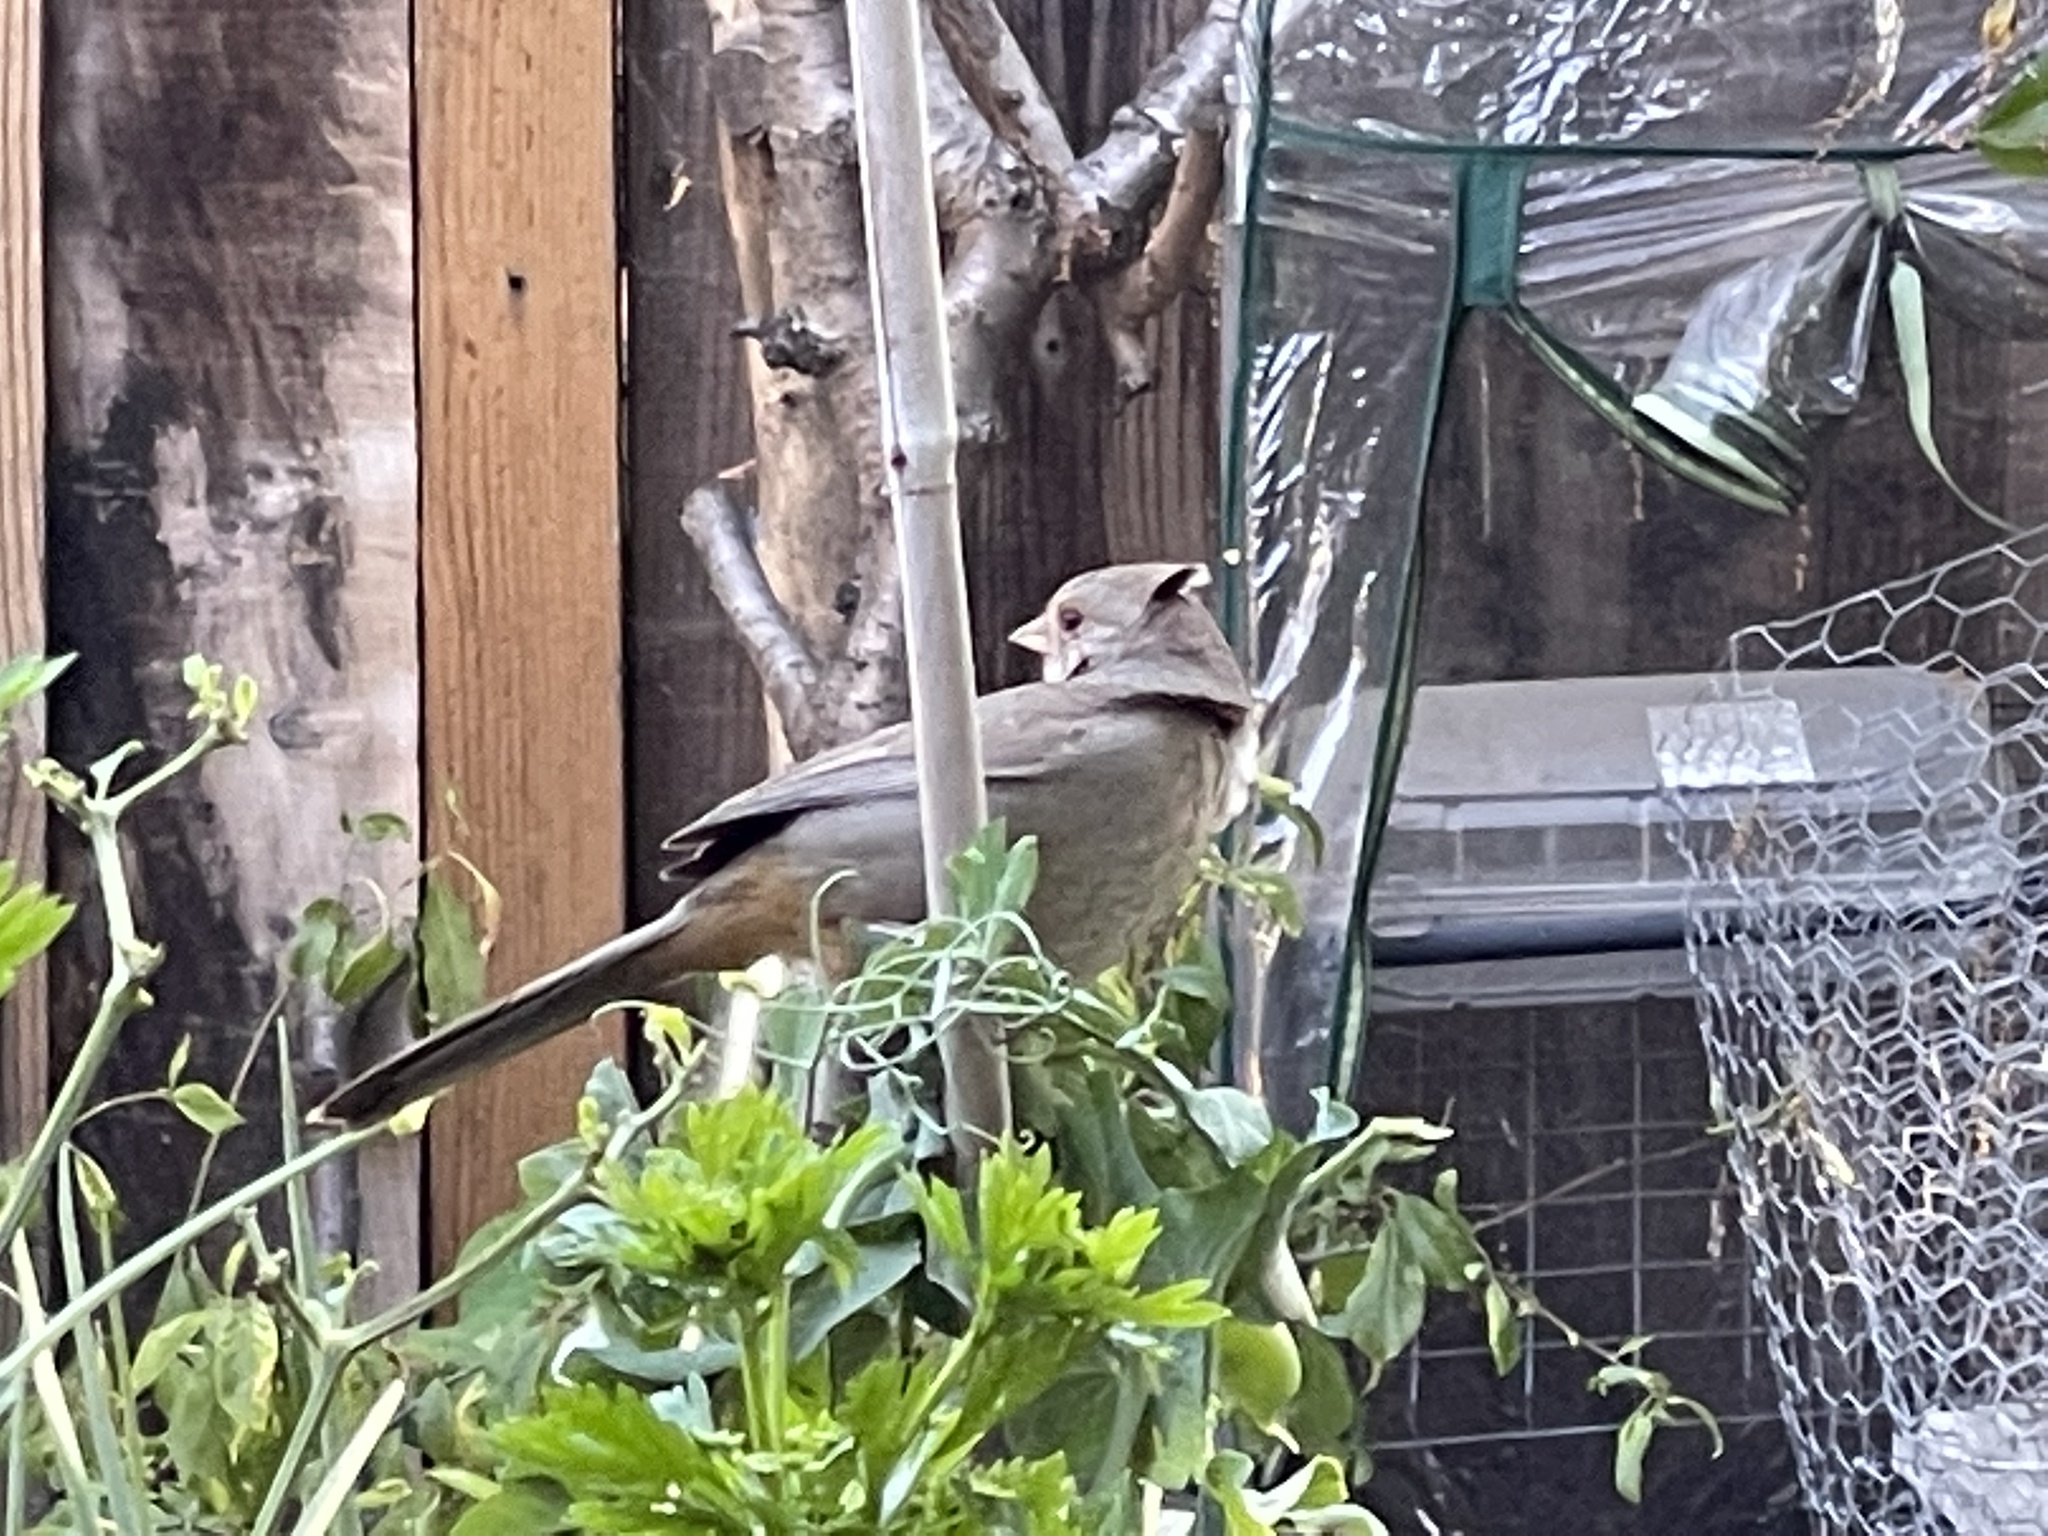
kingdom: Animalia
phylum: Chordata
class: Aves
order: Passeriformes
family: Passerellidae
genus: Melozone
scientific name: Melozone crissalis
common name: California towhee
